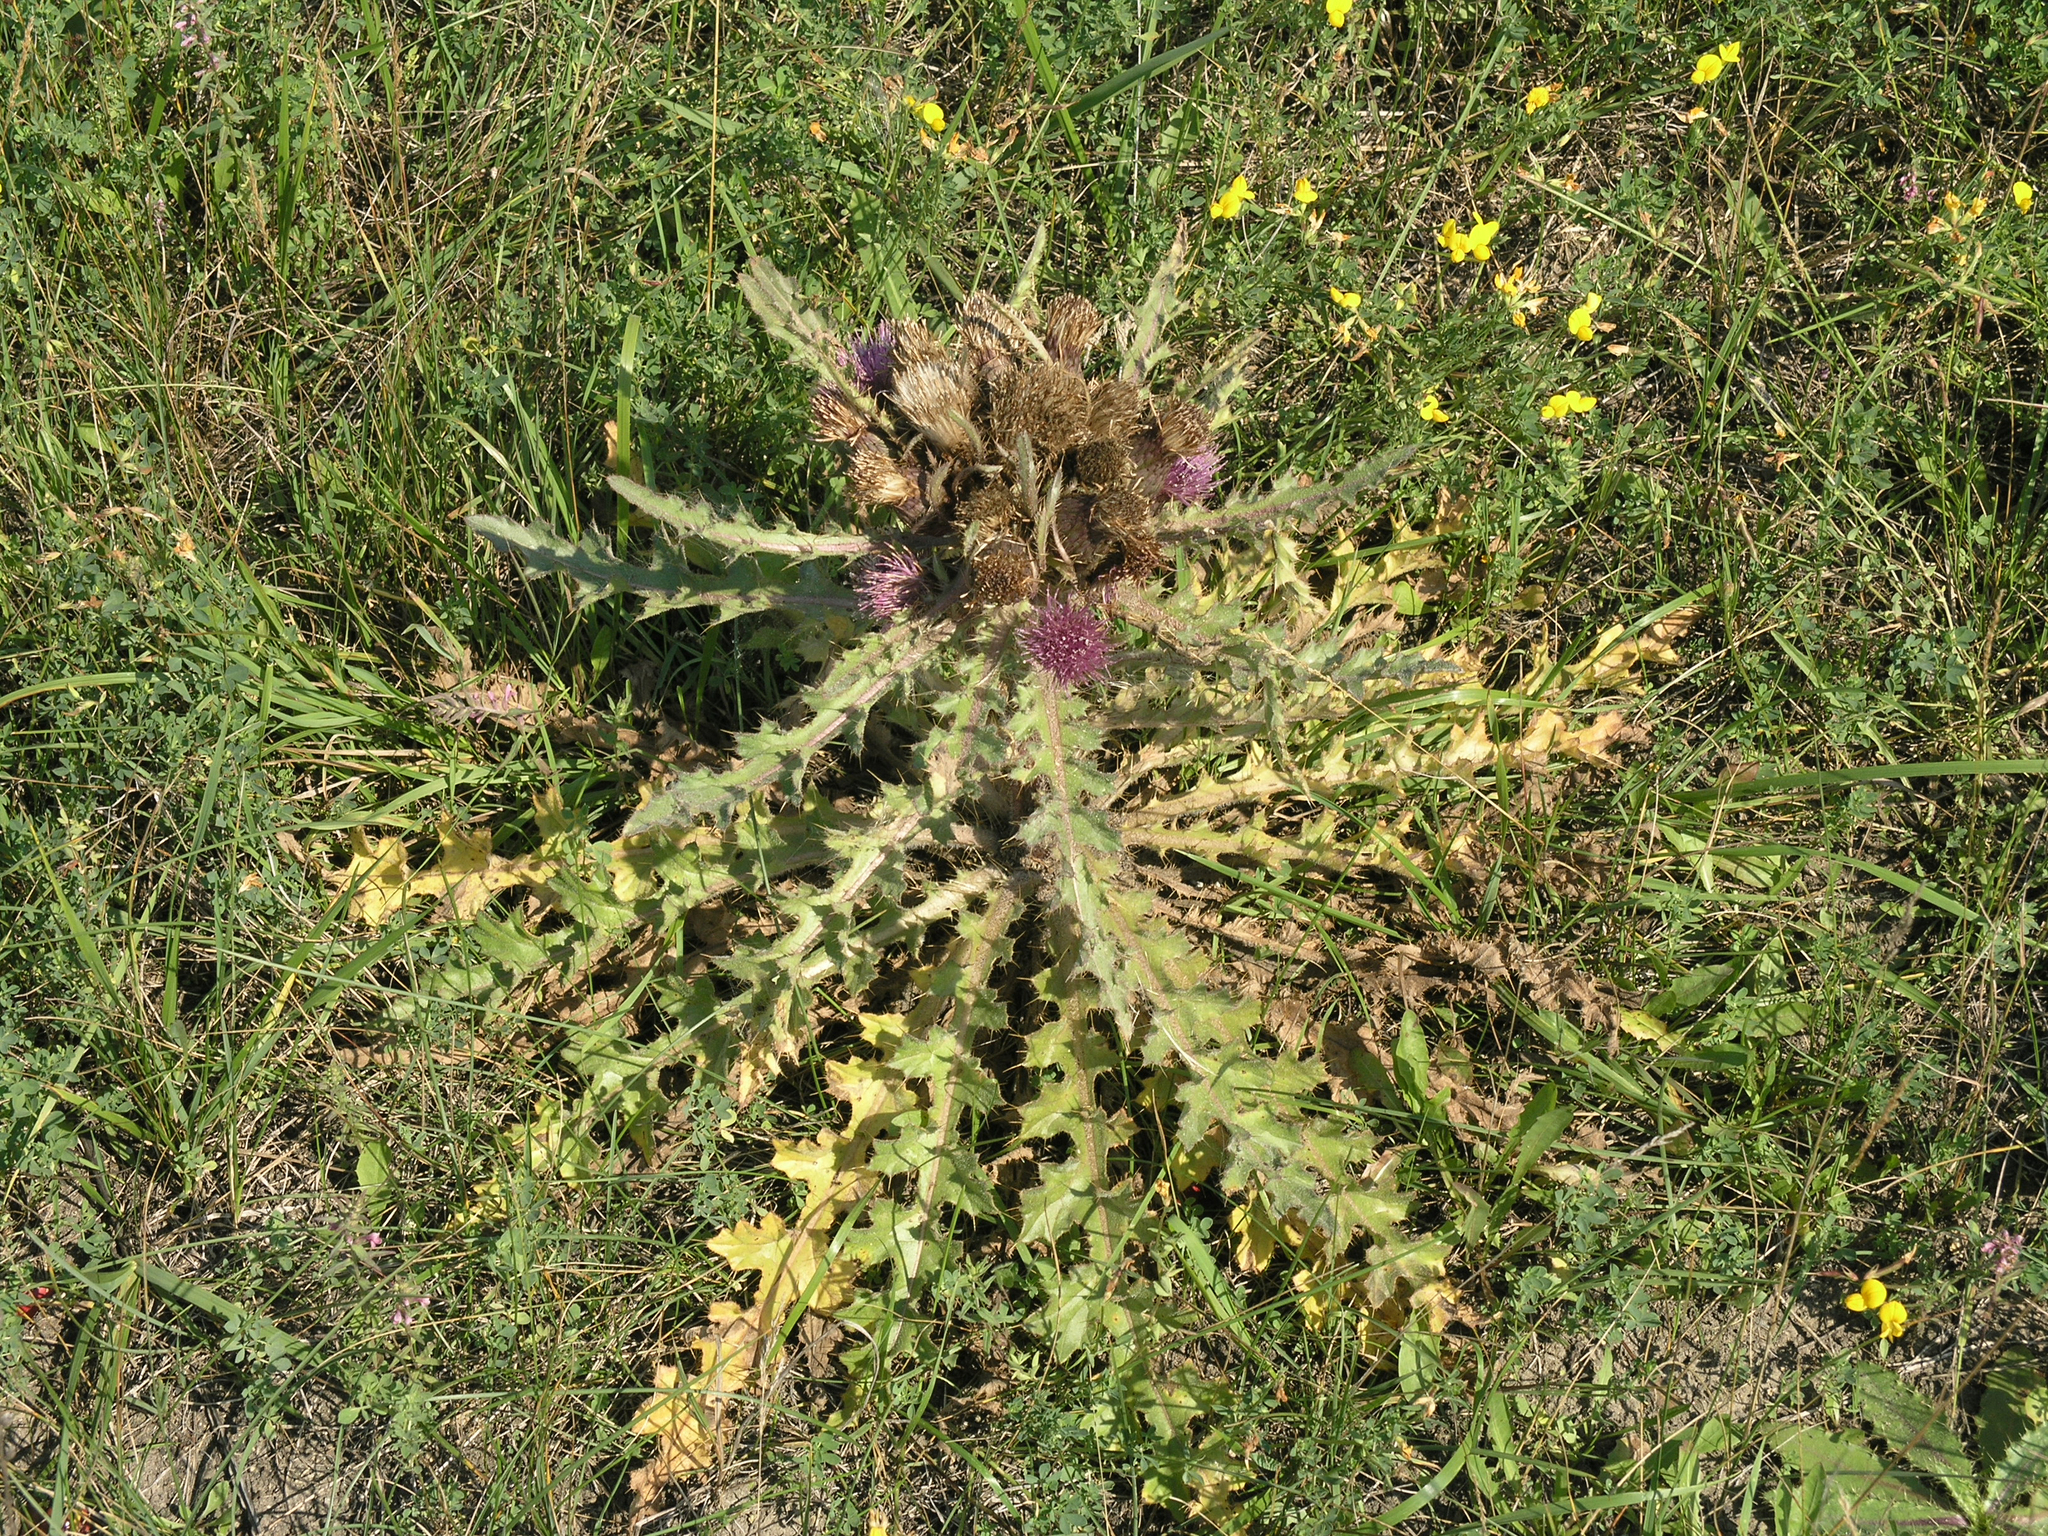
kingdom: Plantae
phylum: Tracheophyta
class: Magnoliopsida
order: Asterales
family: Asteraceae
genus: Cirsium
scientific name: Cirsium esculentum
